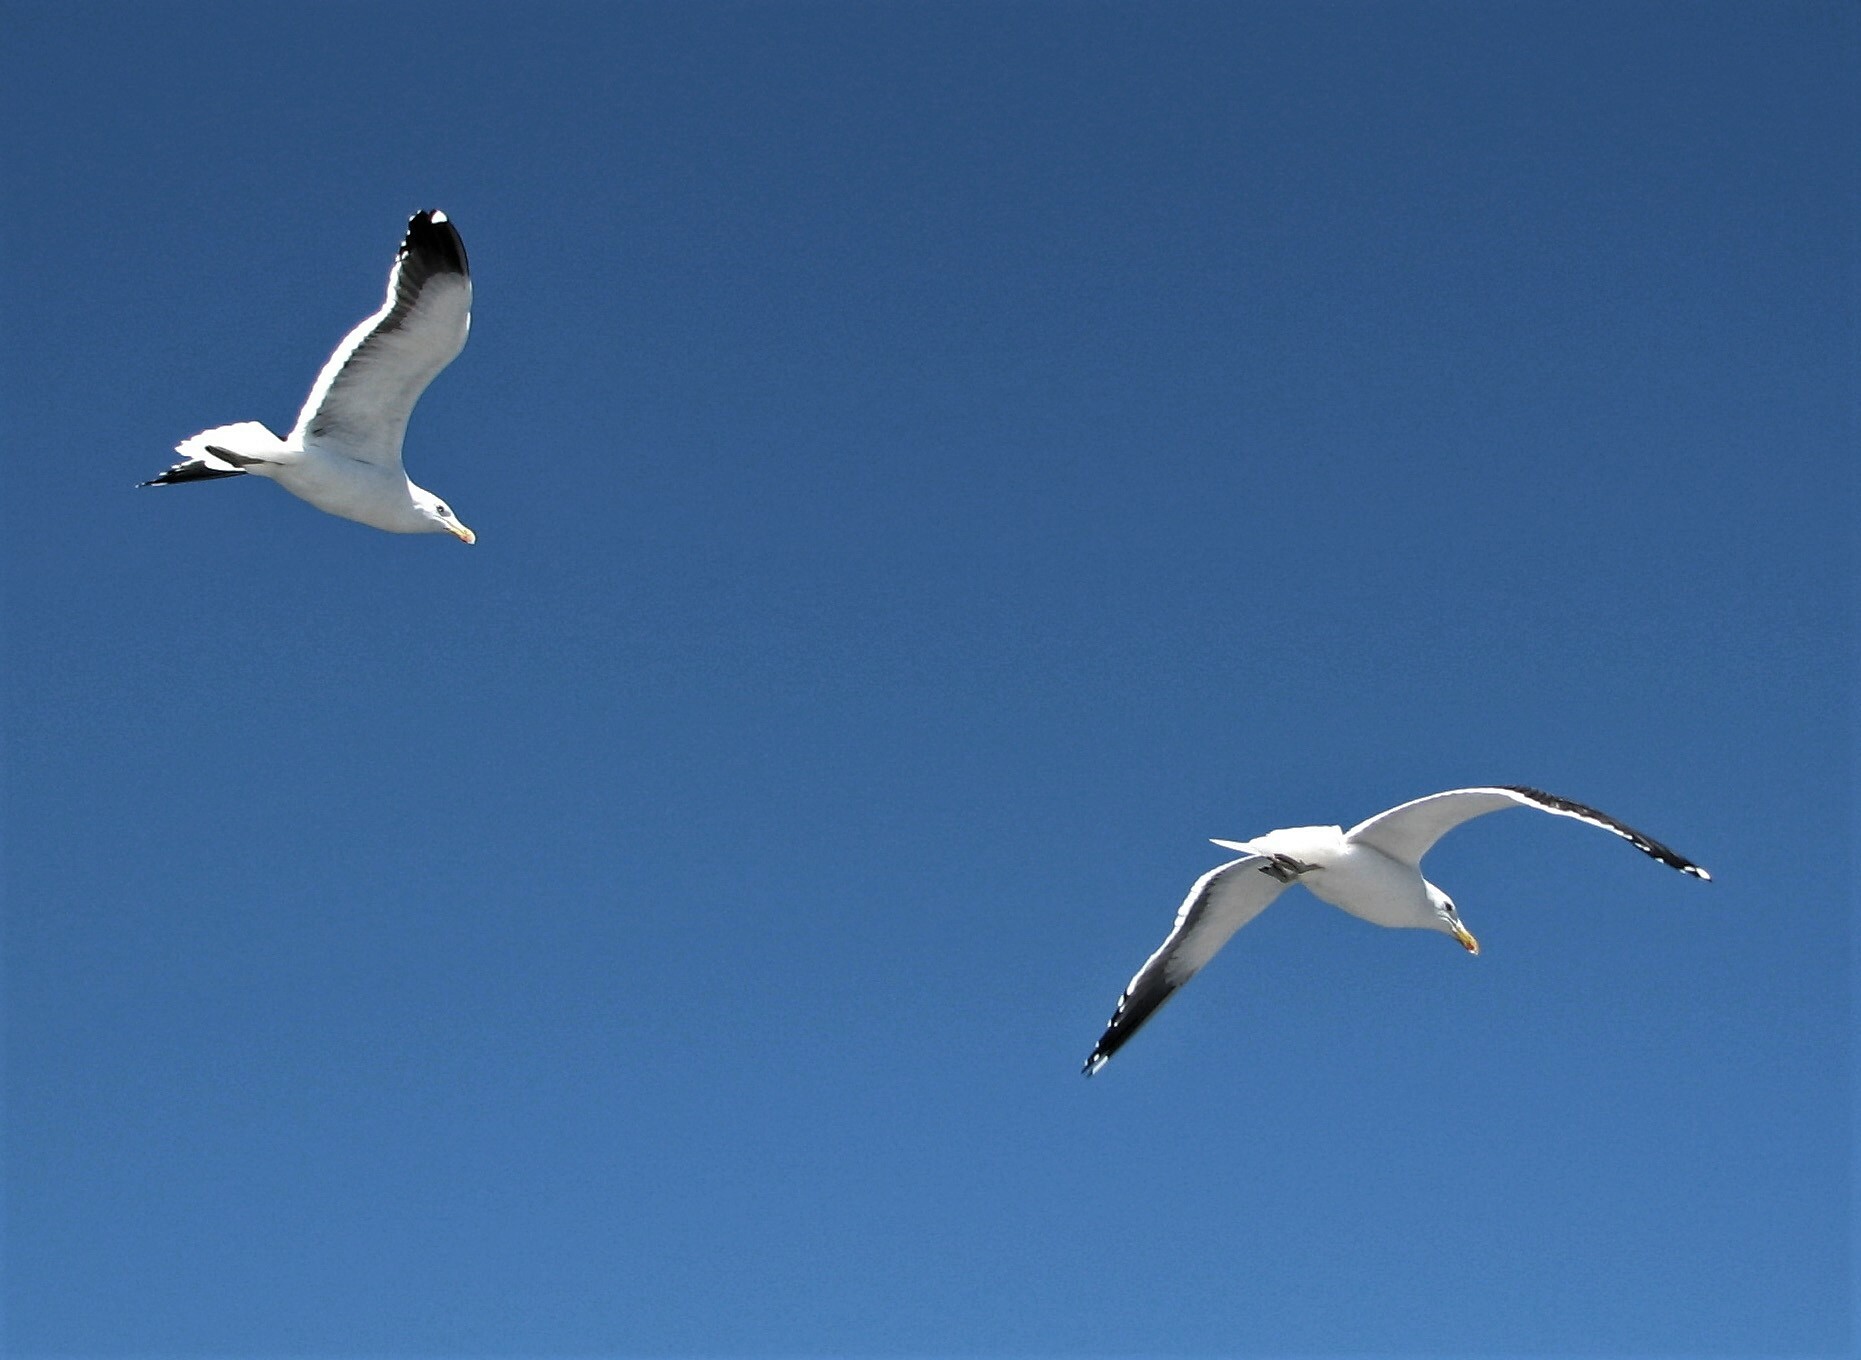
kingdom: Animalia
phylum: Chordata
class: Aves
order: Charadriiformes
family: Laridae
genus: Larus
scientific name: Larus dominicanus
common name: Kelp gull
